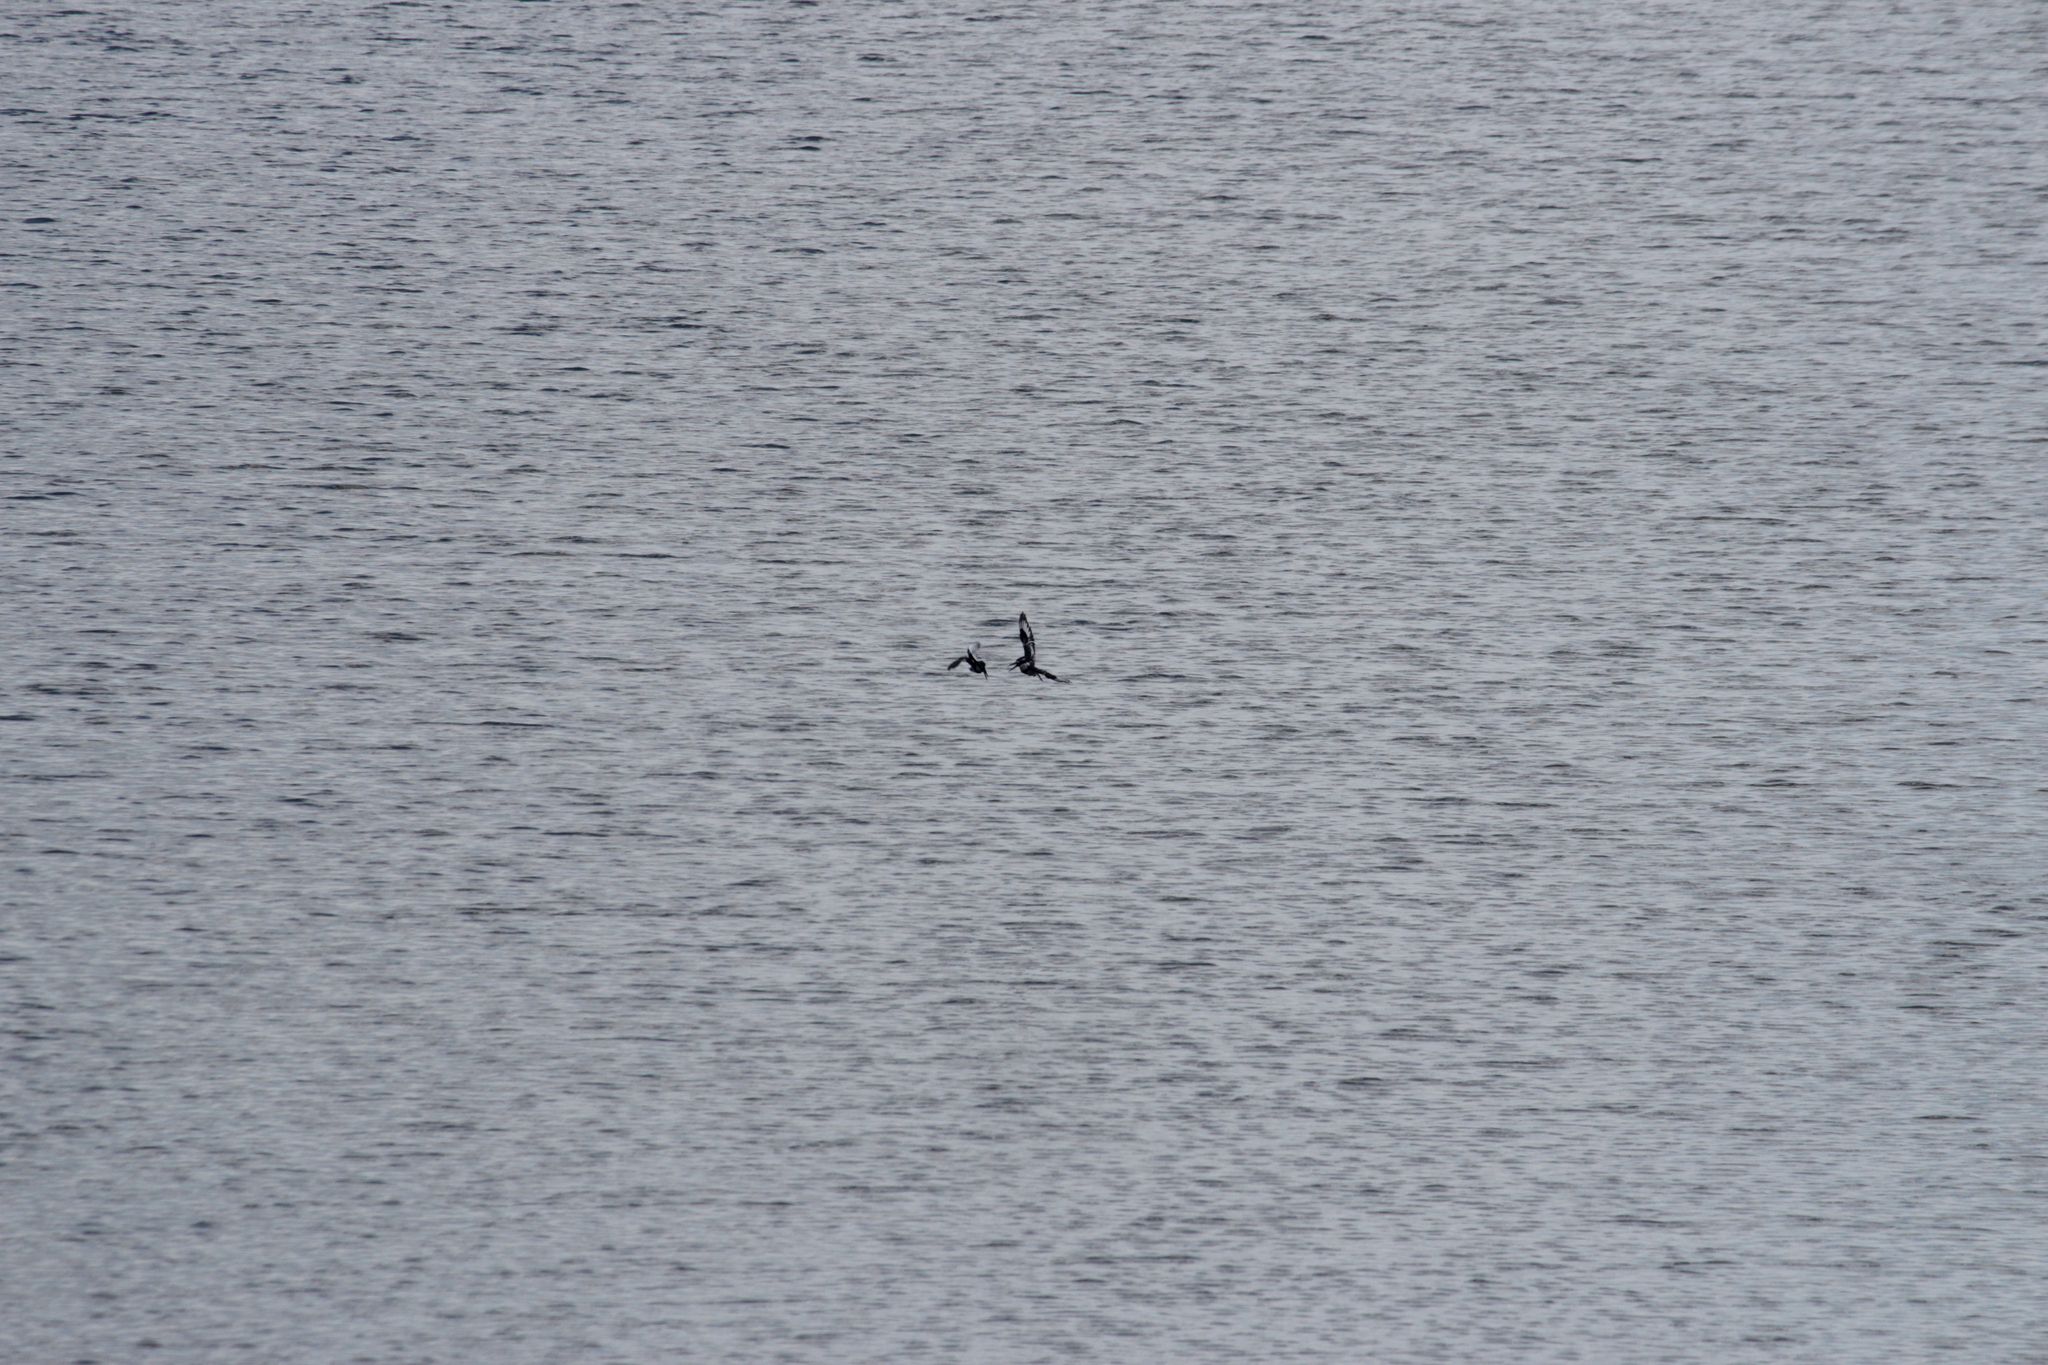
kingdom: Animalia
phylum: Chordata
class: Aves
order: Coraciiformes
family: Alcedinidae
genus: Ceryle
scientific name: Ceryle rudis
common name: Pied kingfisher
